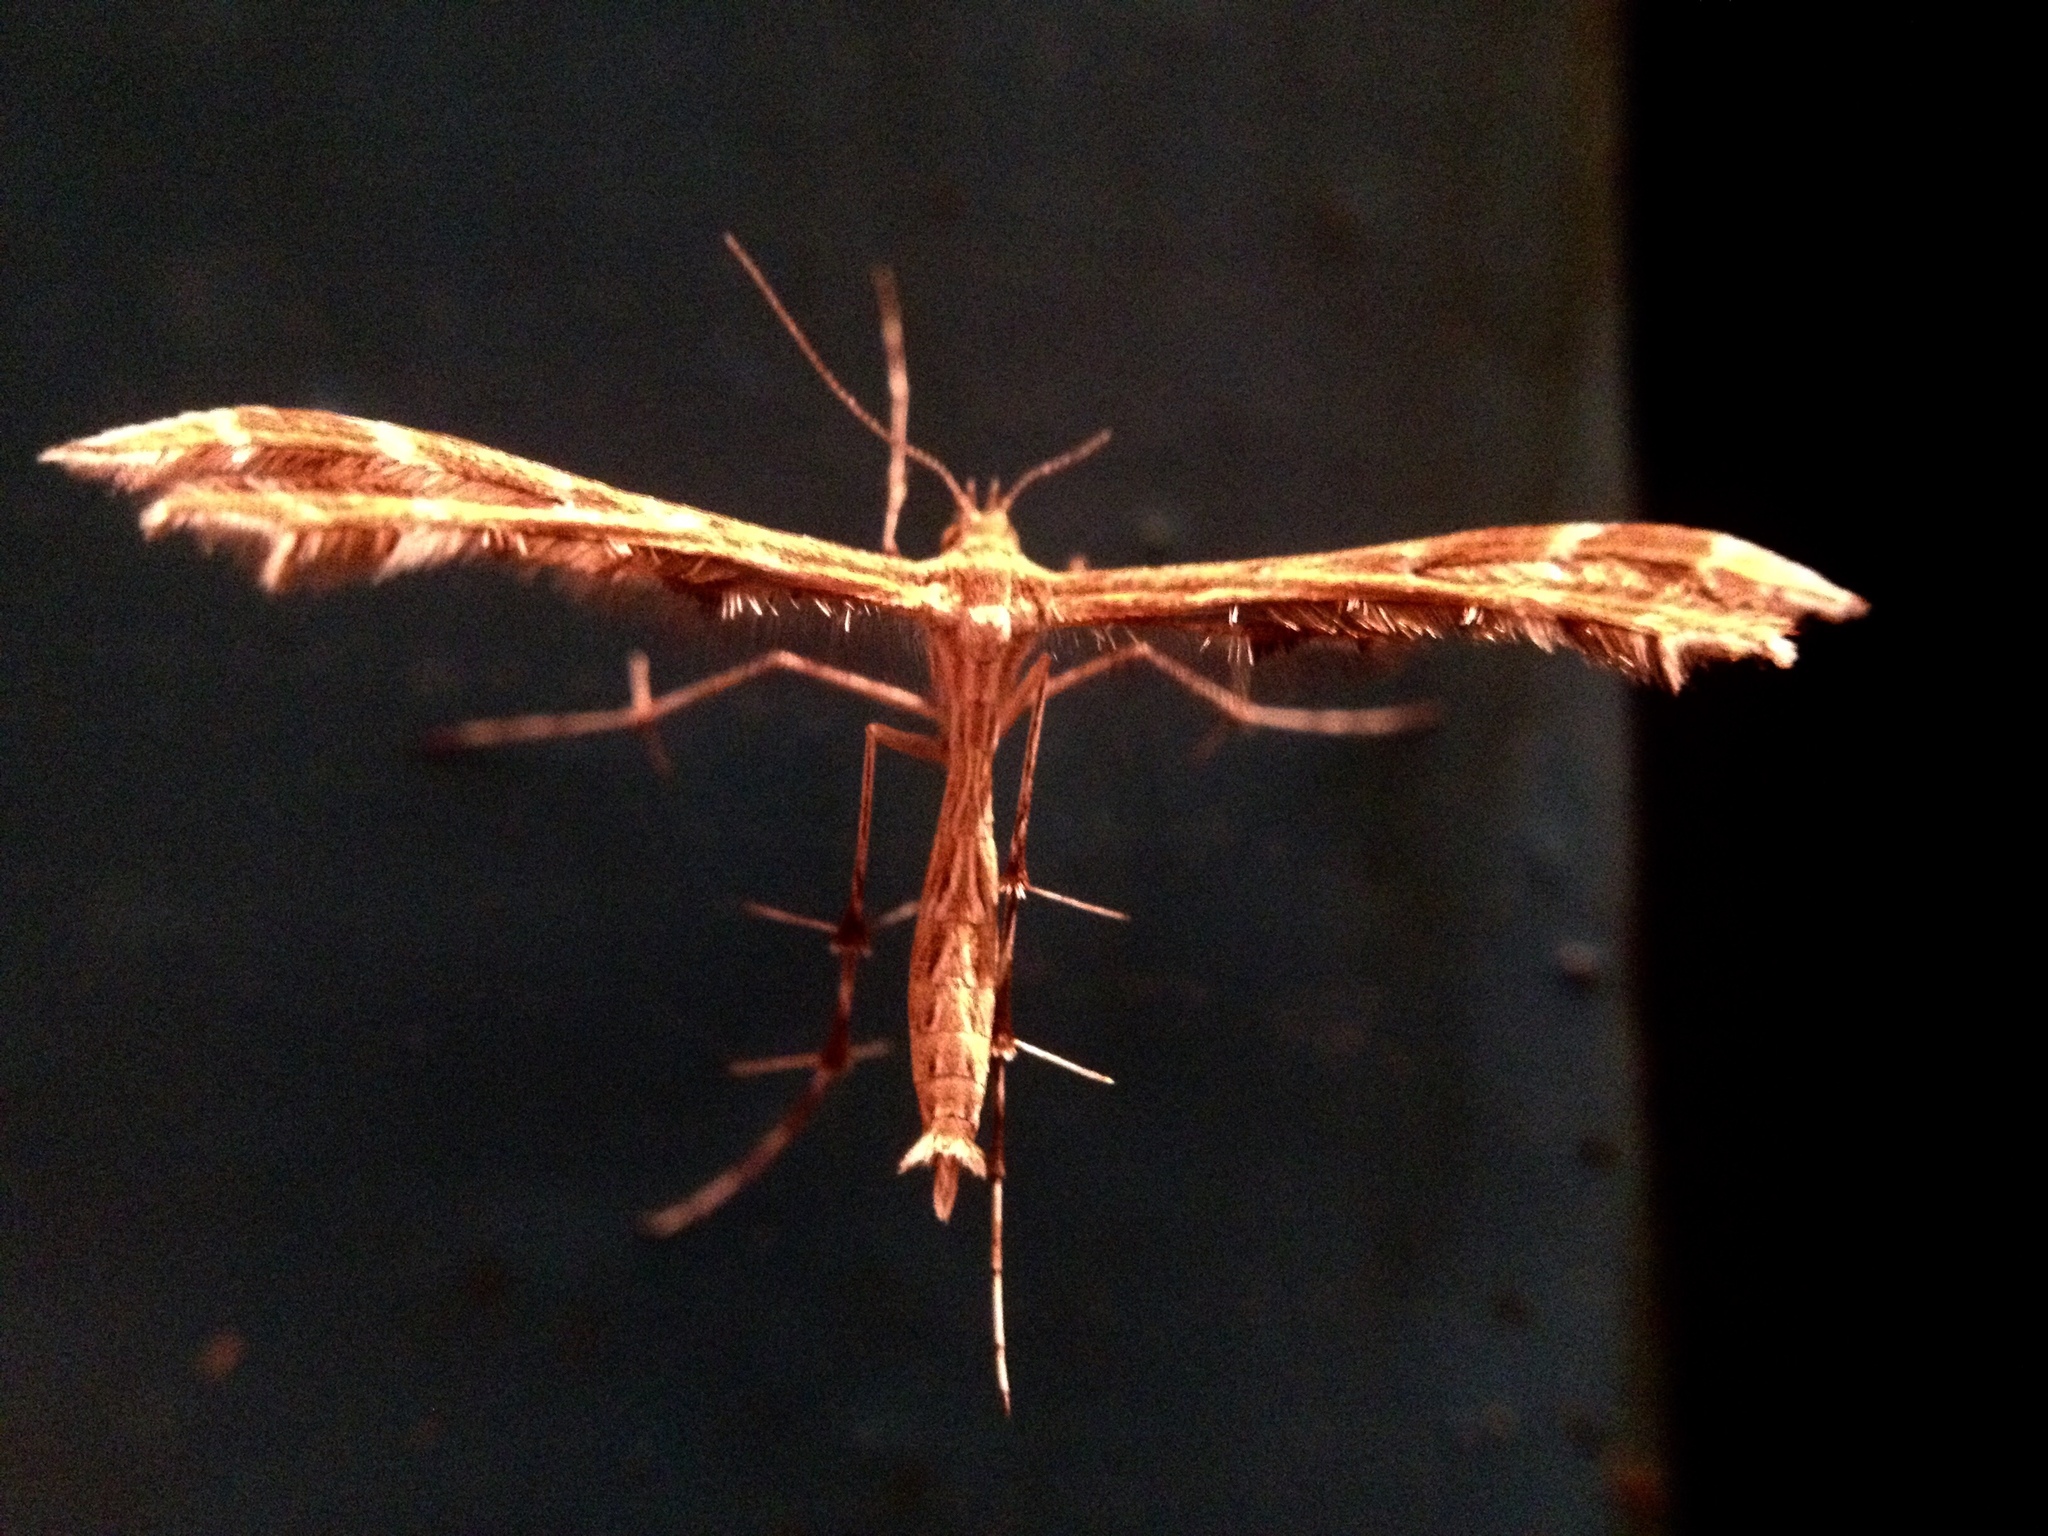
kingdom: Animalia
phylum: Arthropoda
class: Insecta
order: Lepidoptera
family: Pterophoridae
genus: Crombrugghia
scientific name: Crombrugghia tristis
